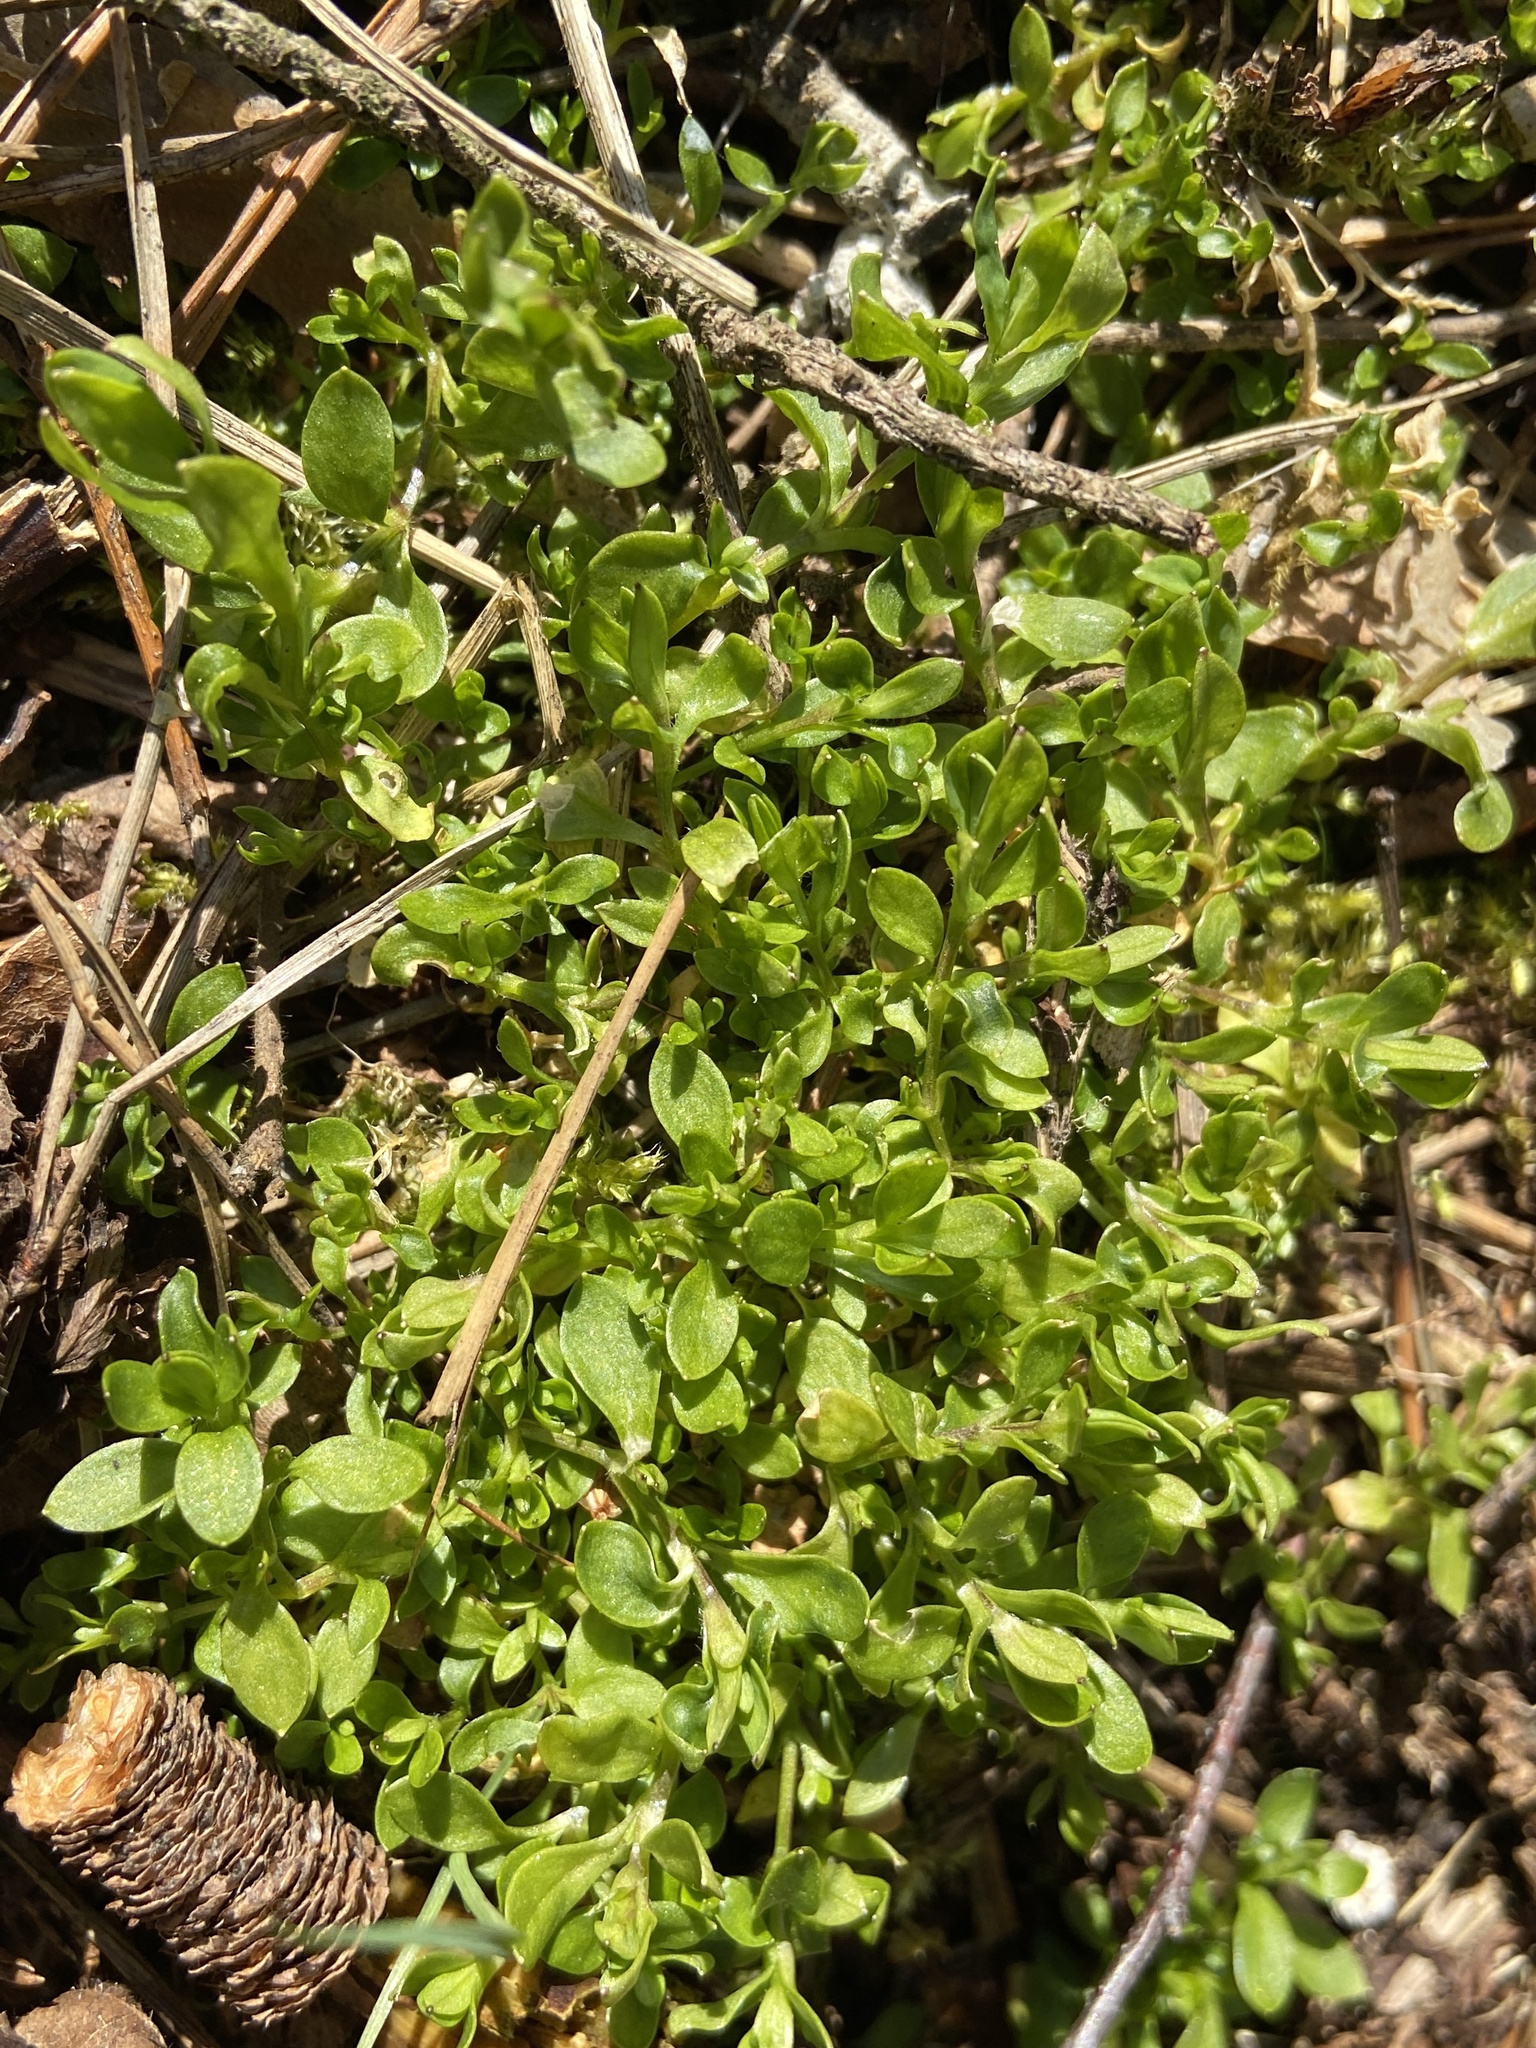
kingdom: Plantae
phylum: Tracheophyta
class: Magnoliopsida
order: Caryophyllales
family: Caryophyllaceae
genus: Stellaria
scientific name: Stellaria media
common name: Common chickweed
